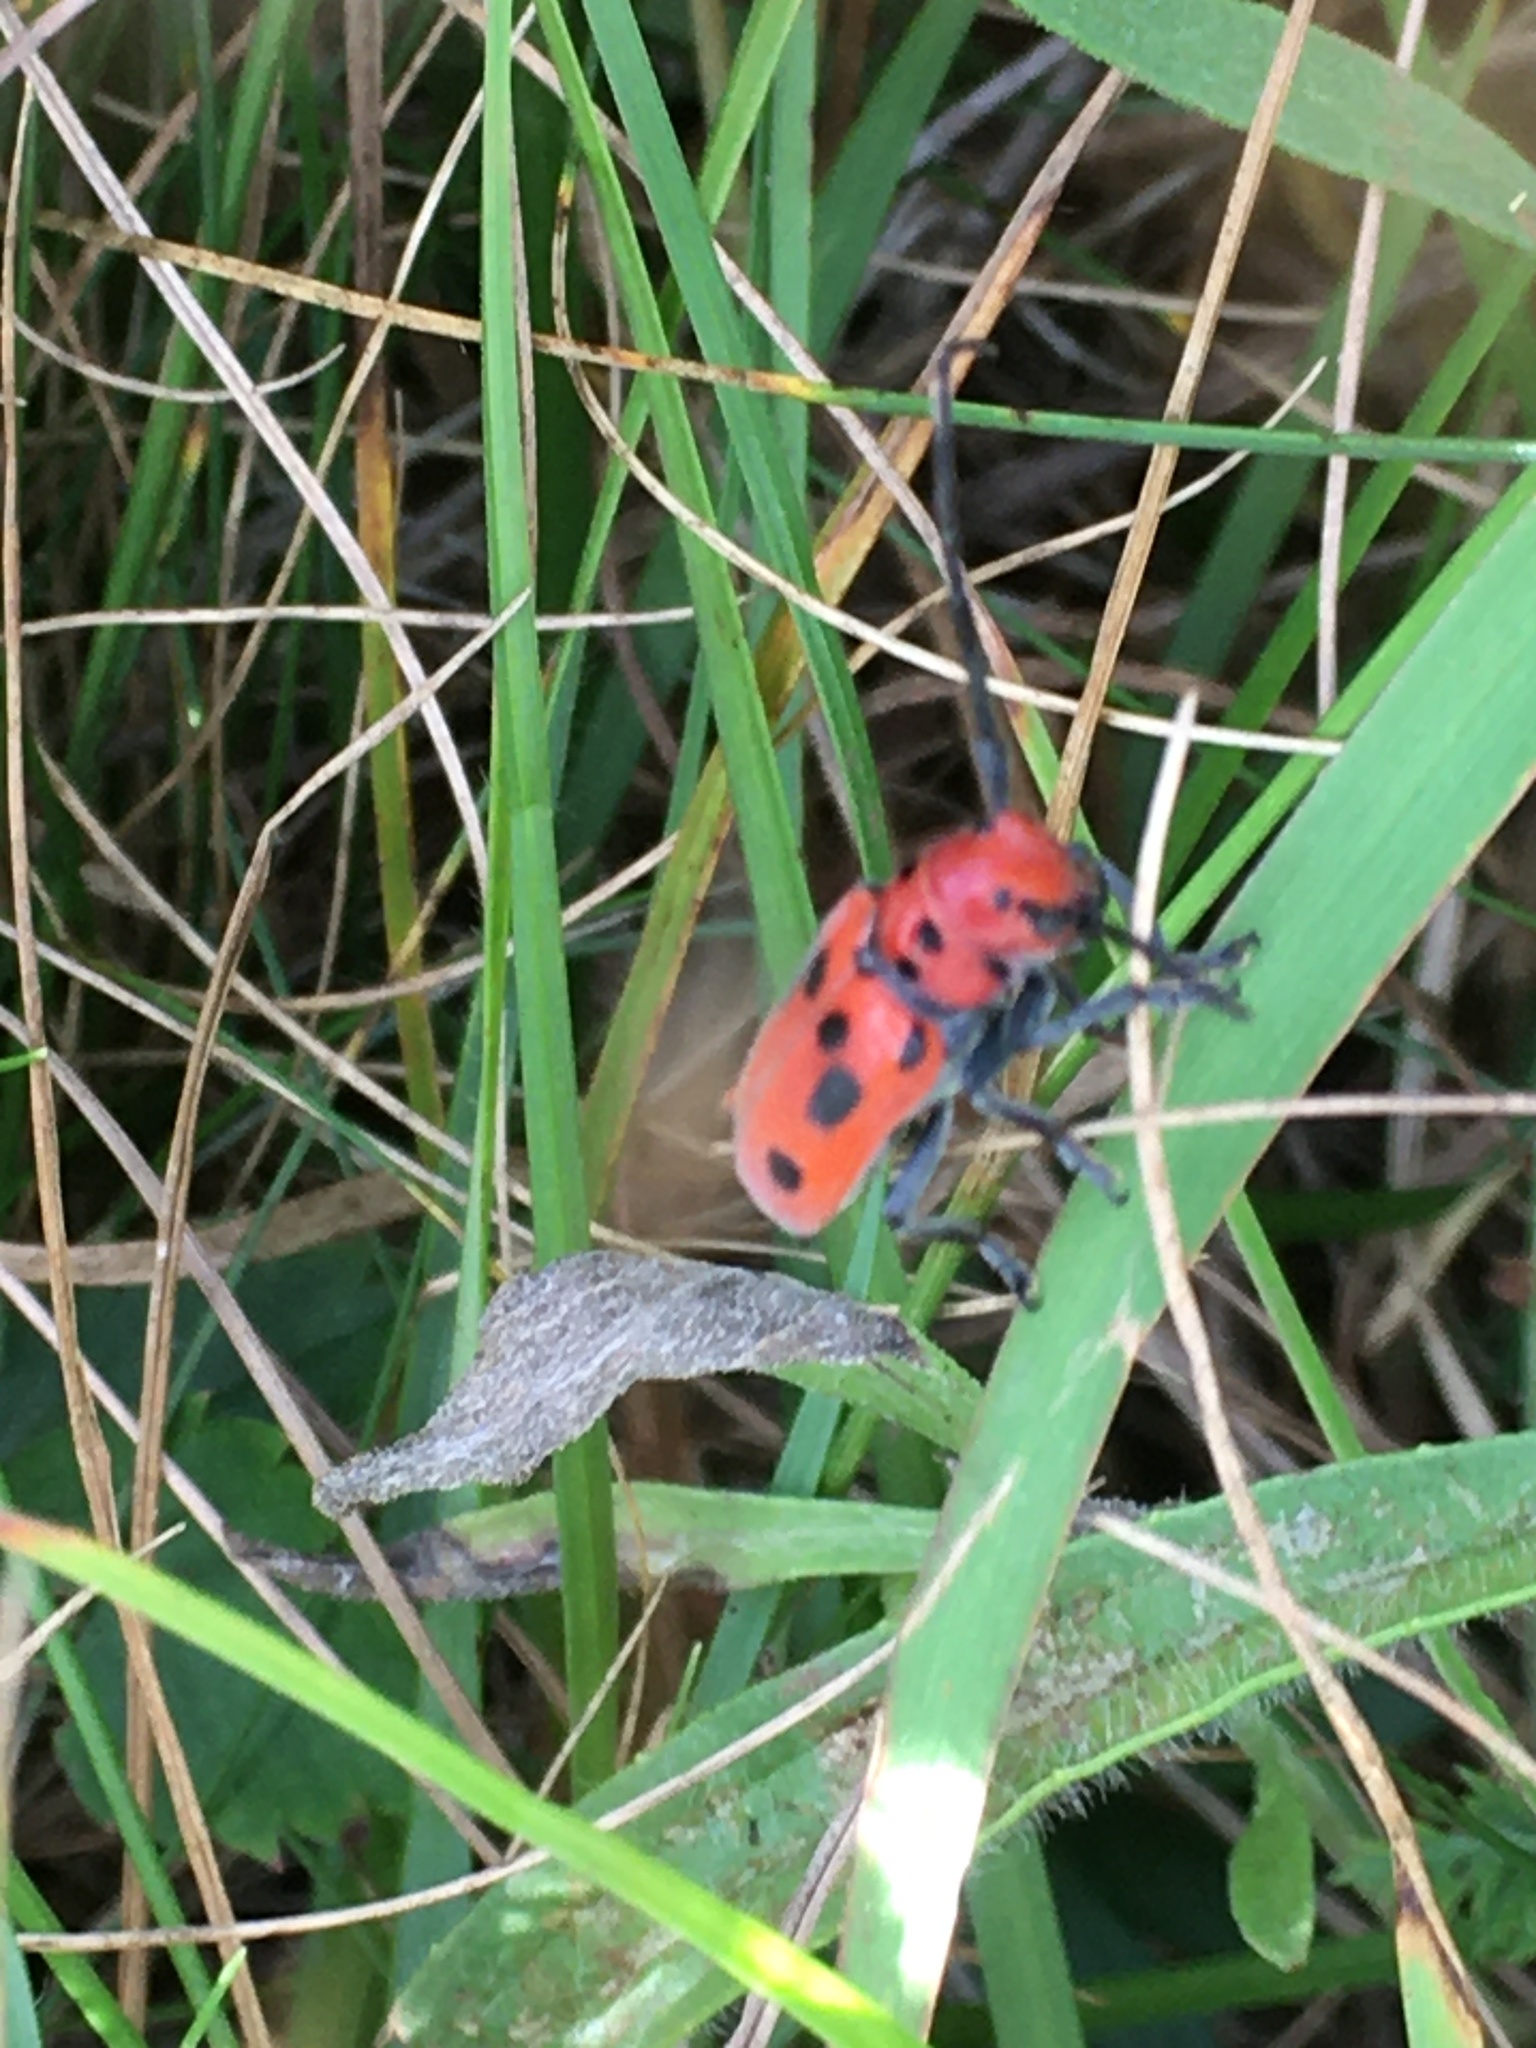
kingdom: Animalia
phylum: Arthropoda
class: Insecta
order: Coleoptera
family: Cerambycidae
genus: Tetraopes
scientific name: Tetraopes tetrophthalmus
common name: Red milkweed beetle
